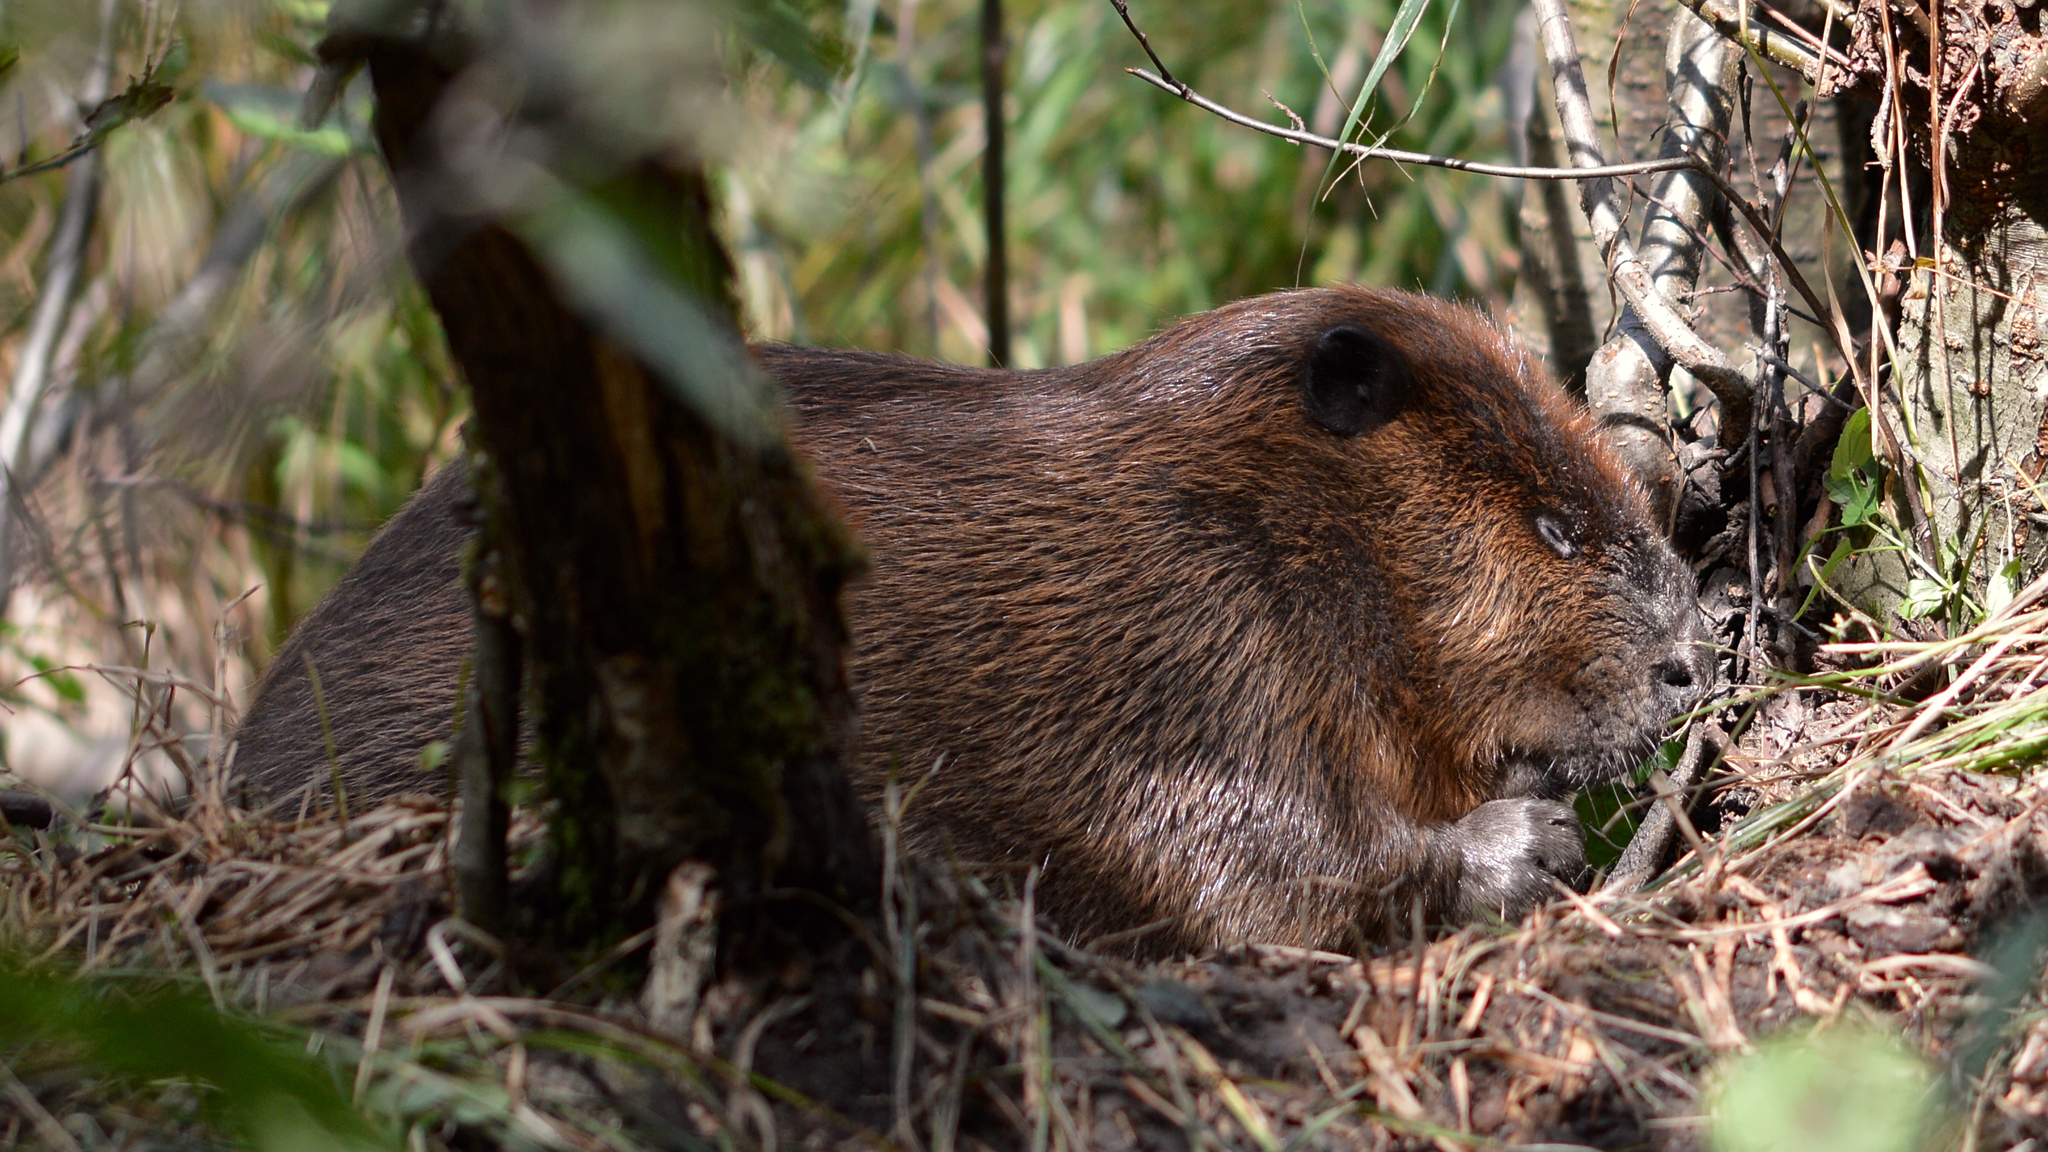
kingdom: Animalia
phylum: Chordata
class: Mammalia
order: Rodentia
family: Castoridae
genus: Castor
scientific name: Castor canadensis
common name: American beaver
